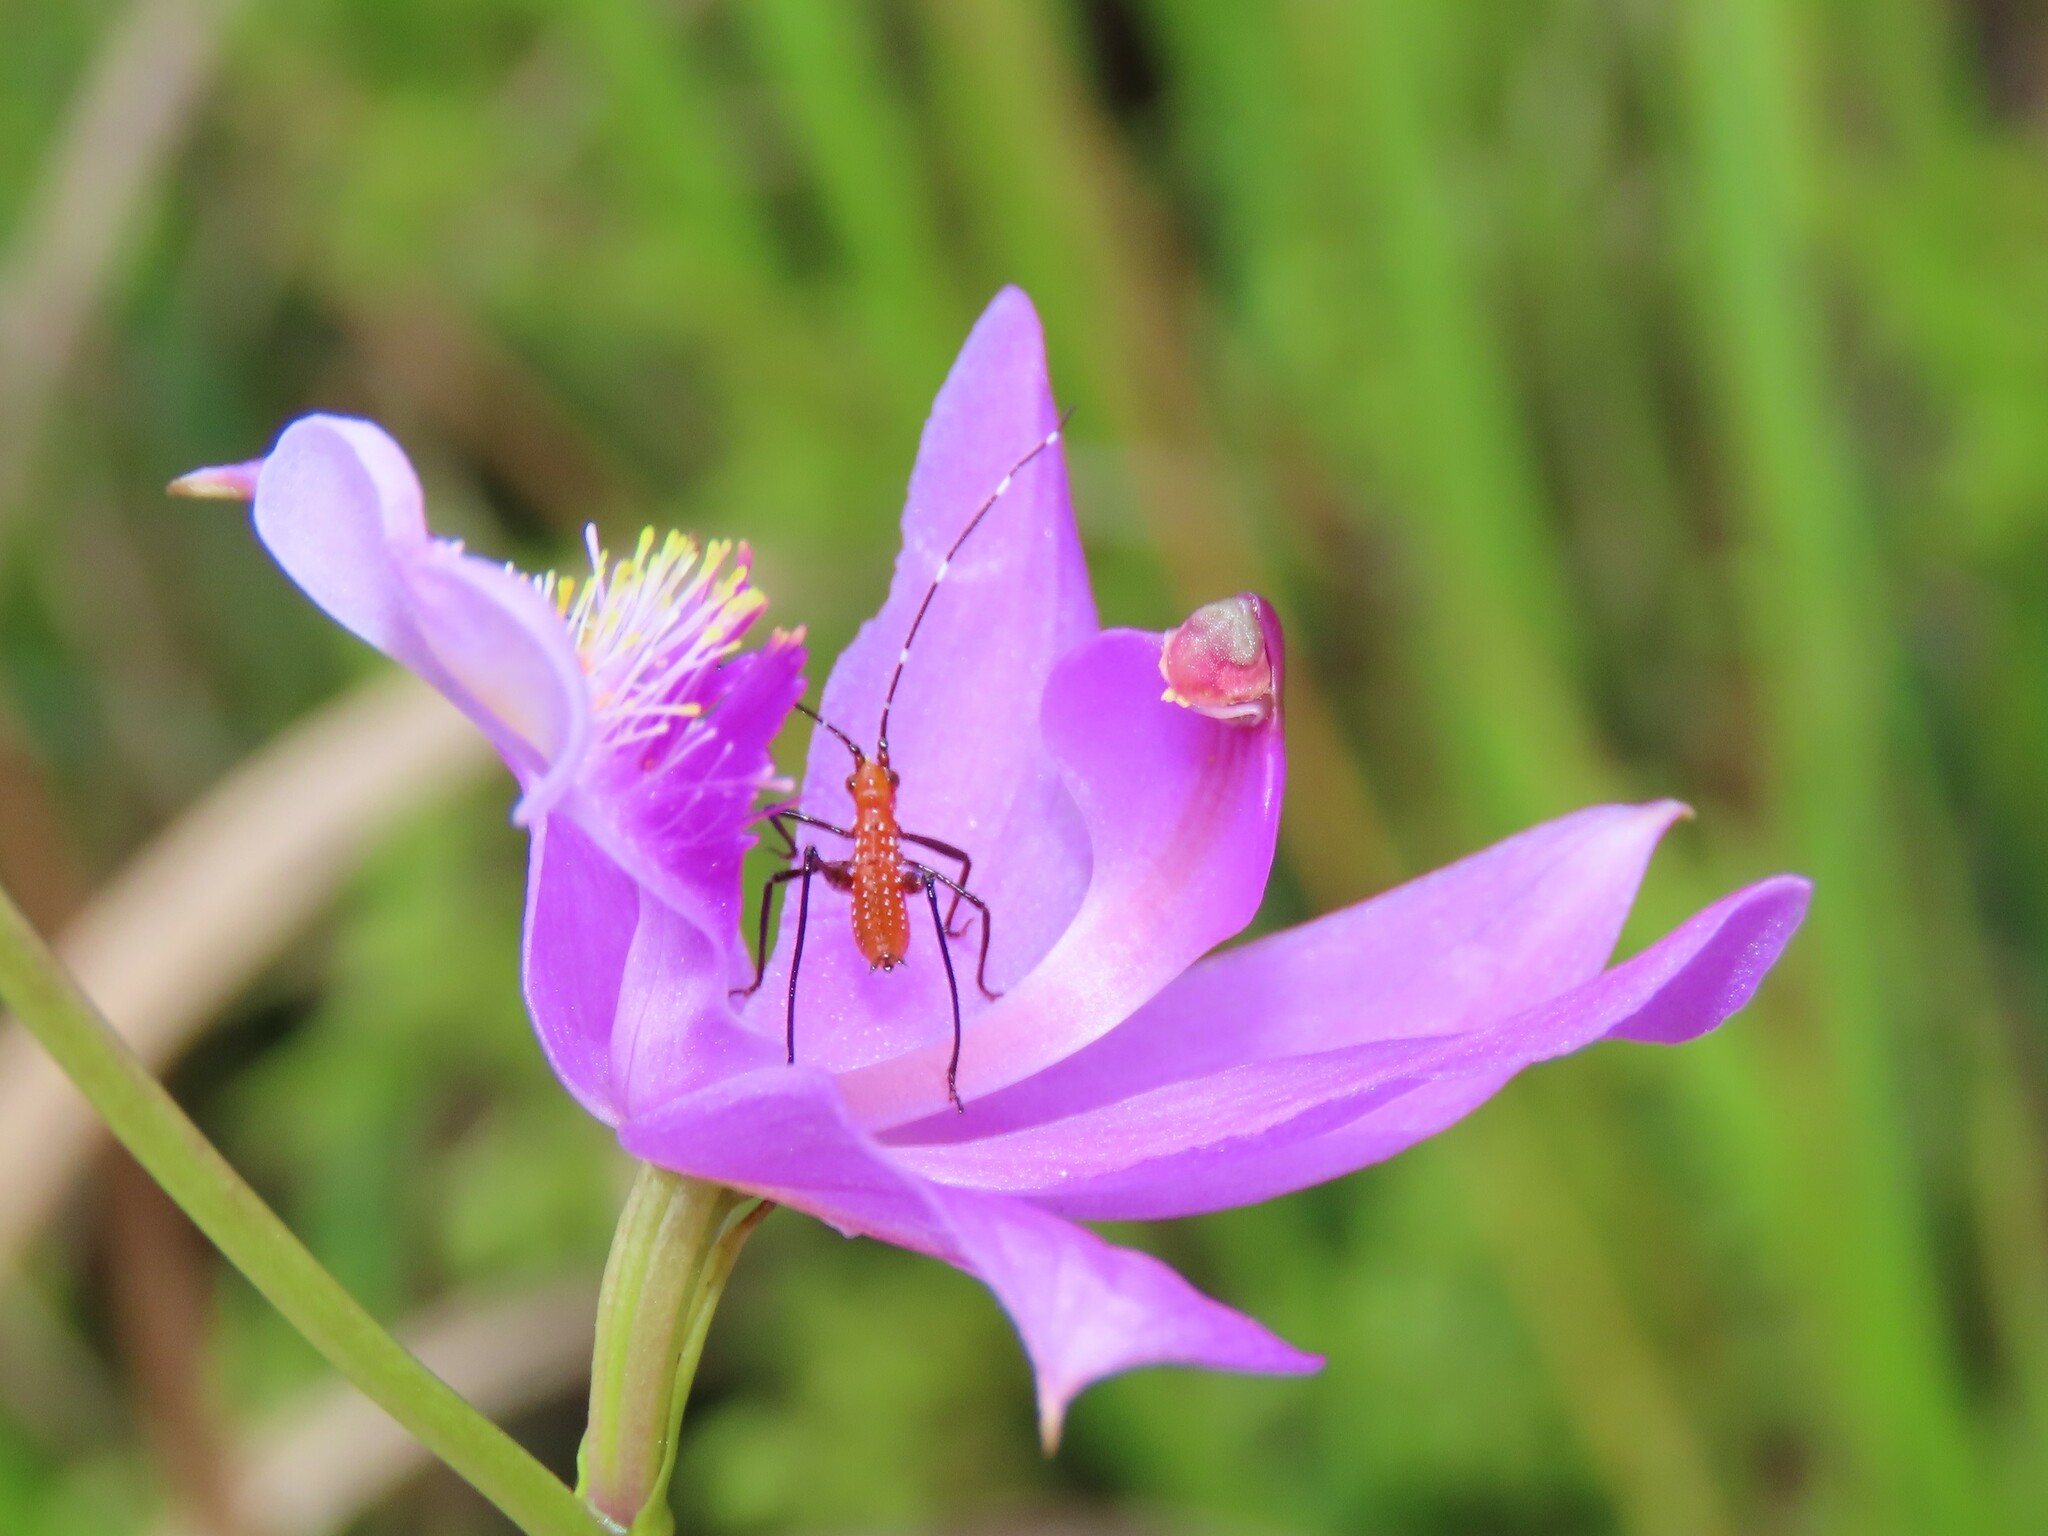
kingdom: Animalia
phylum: Arthropoda
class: Insecta
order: Hemiptera
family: Reduviidae
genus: Zelus
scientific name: Zelus longipes
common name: Milkweed assassin bug
